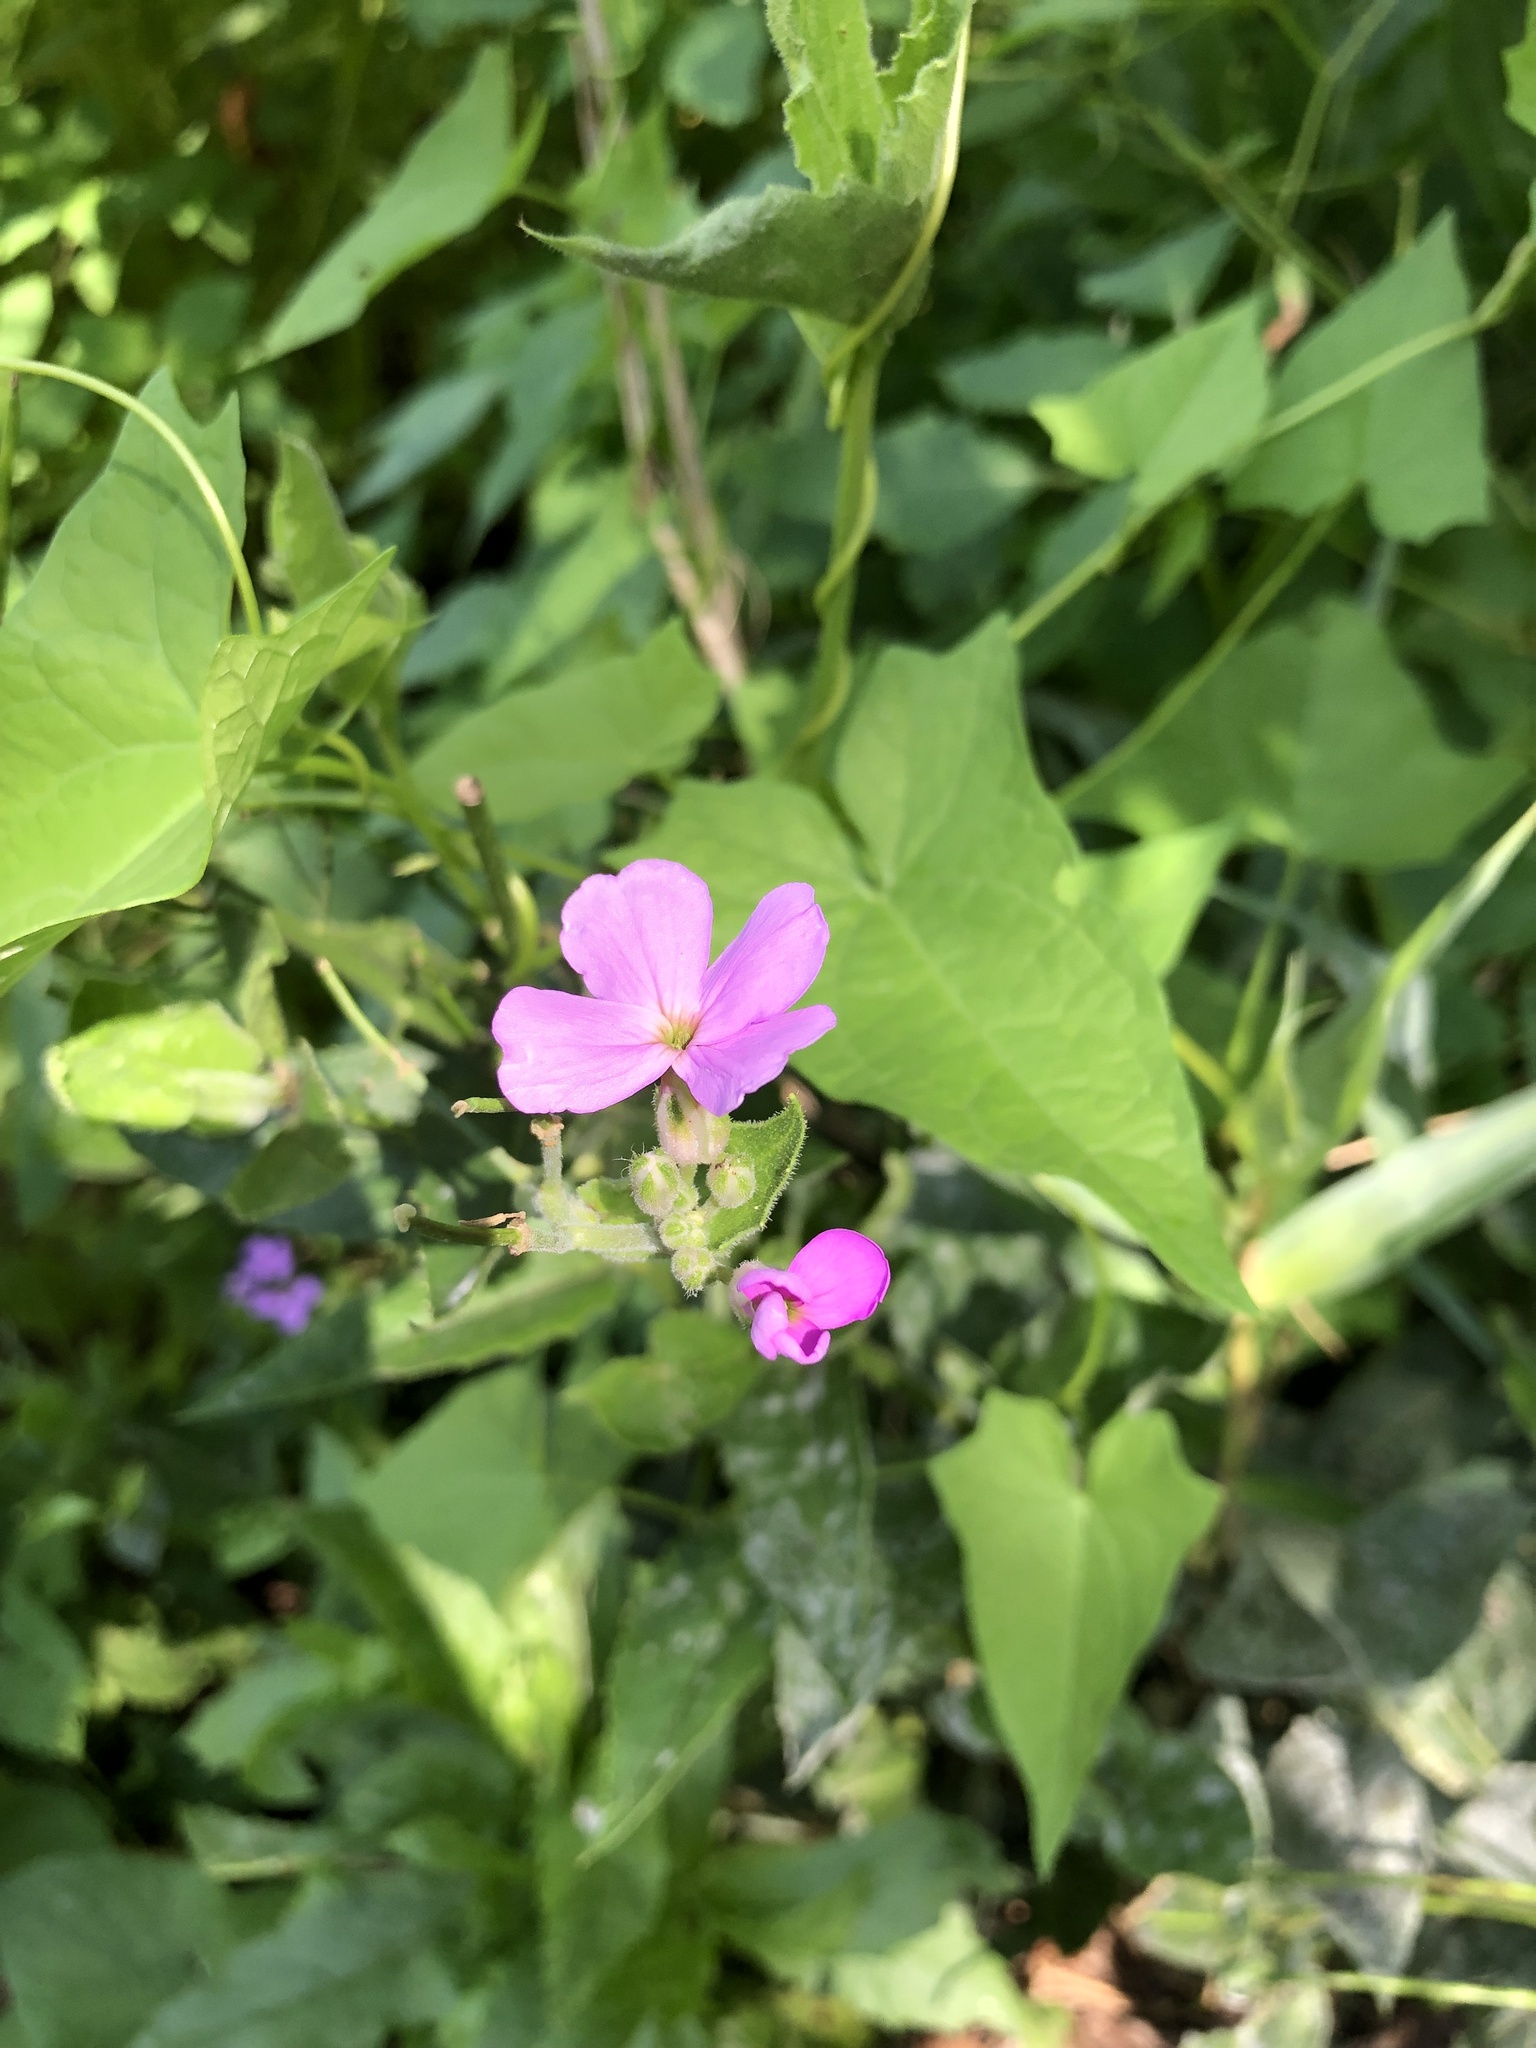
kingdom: Plantae
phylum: Tracheophyta
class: Magnoliopsida
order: Brassicales
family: Brassicaceae
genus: Hesperis
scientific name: Hesperis matronalis
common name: Dame's-violet
